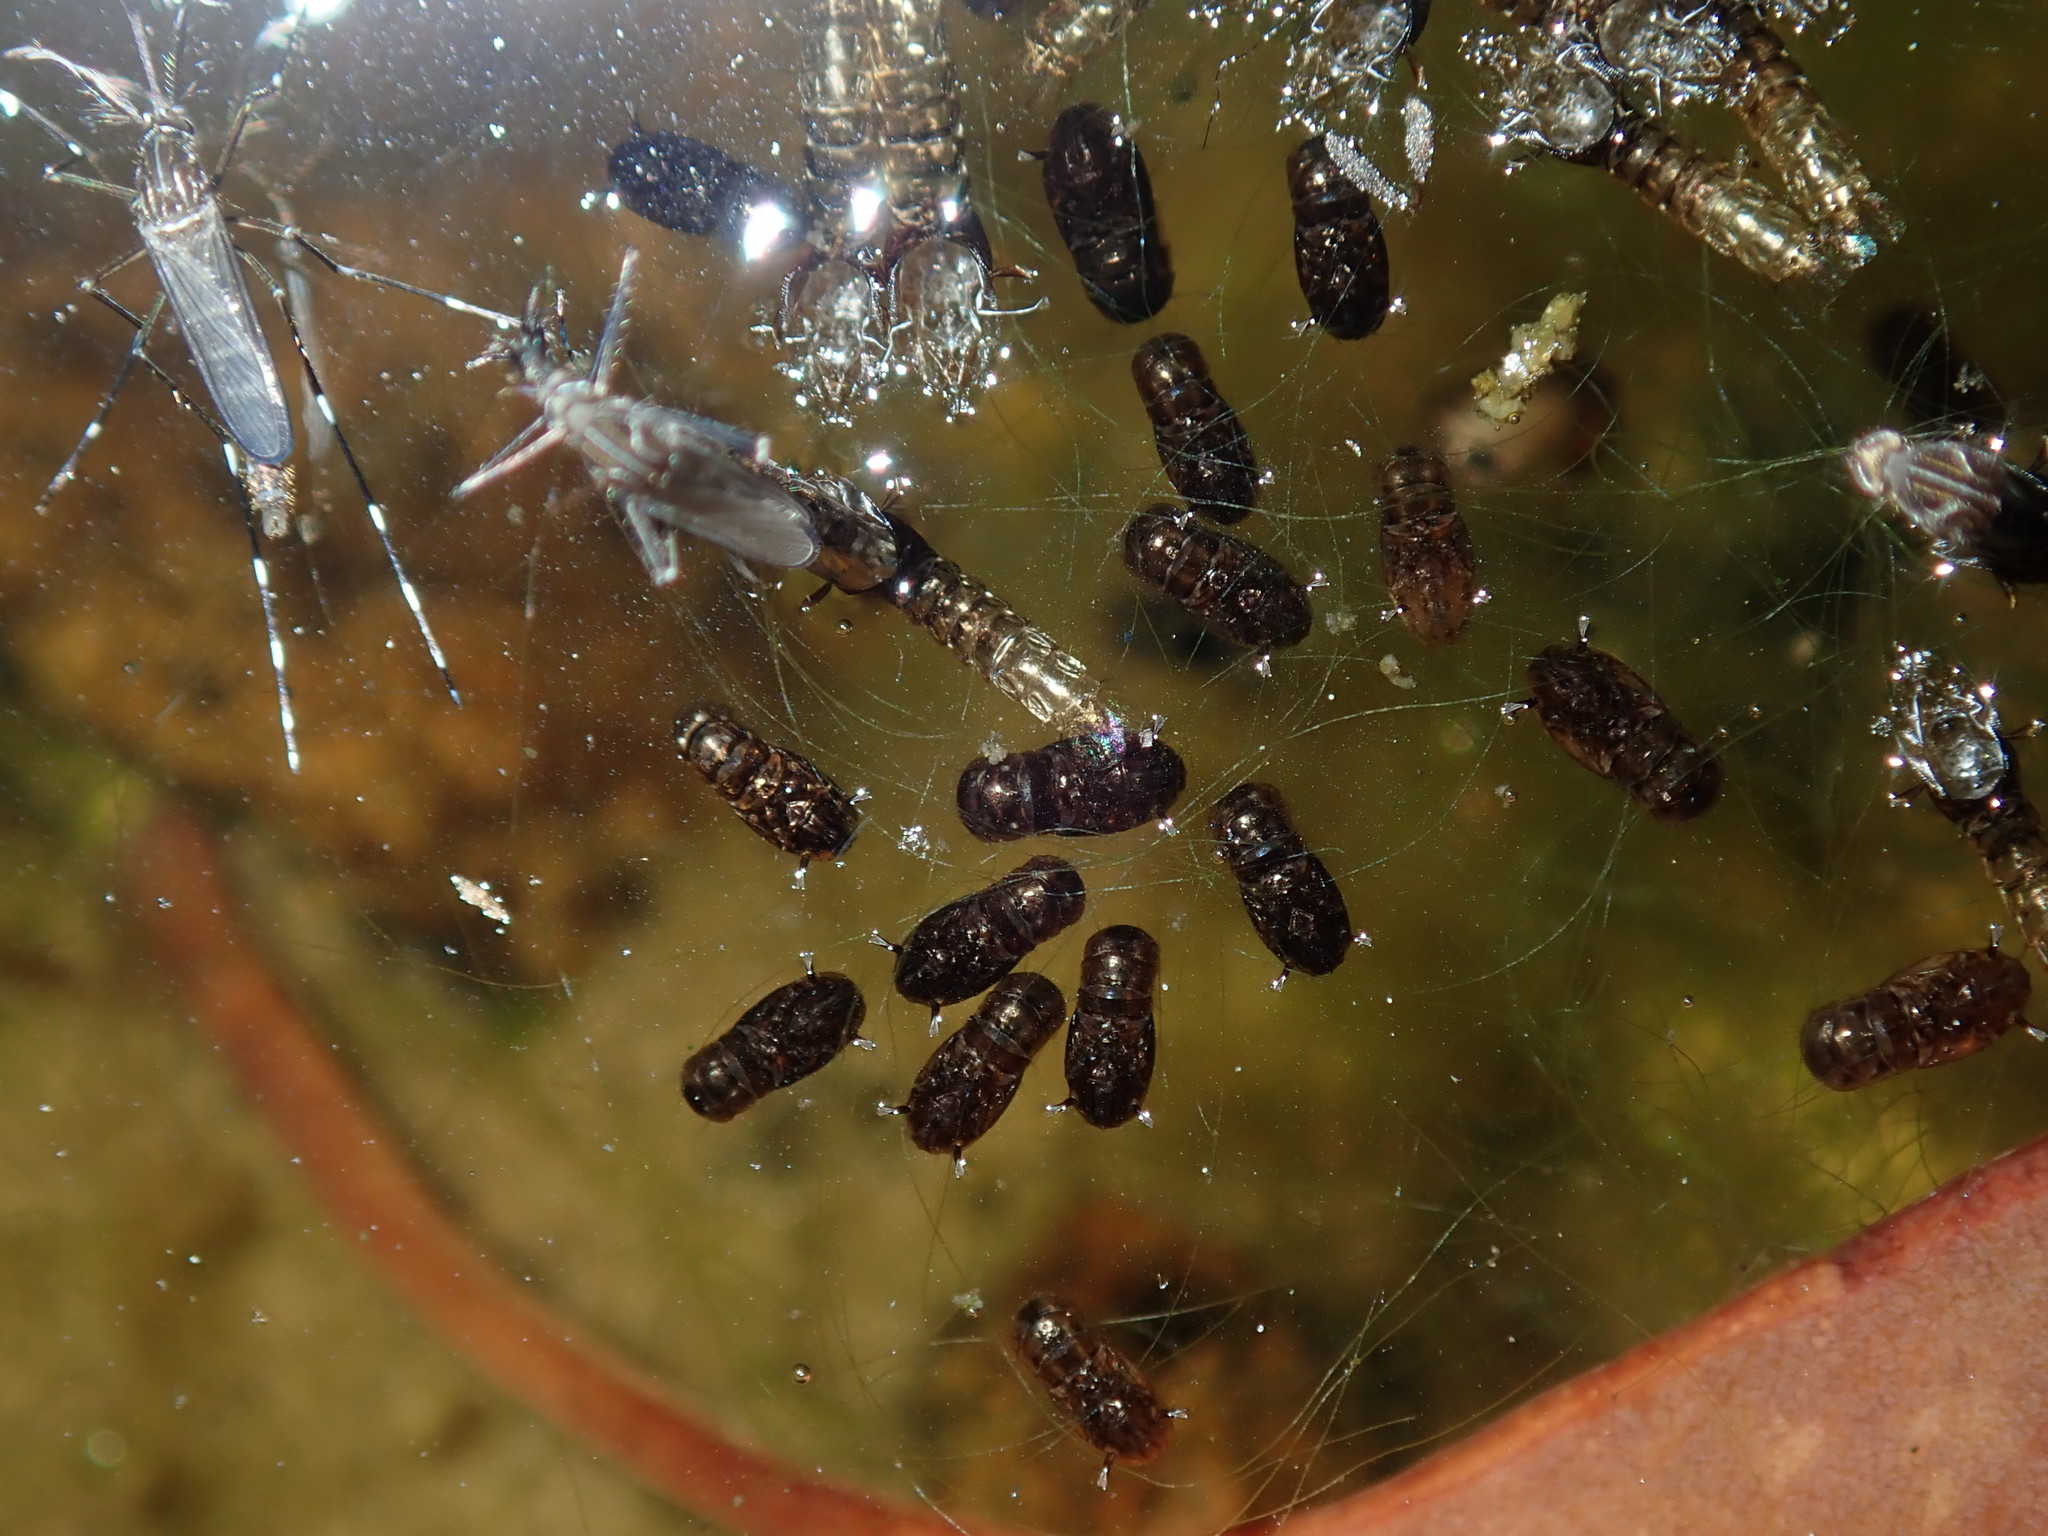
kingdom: Animalia
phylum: Arthropoda
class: Insecta
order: Diptera
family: Culicidae
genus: Aedes
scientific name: Aedes notoscriptus
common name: Australian backyard mosquito
